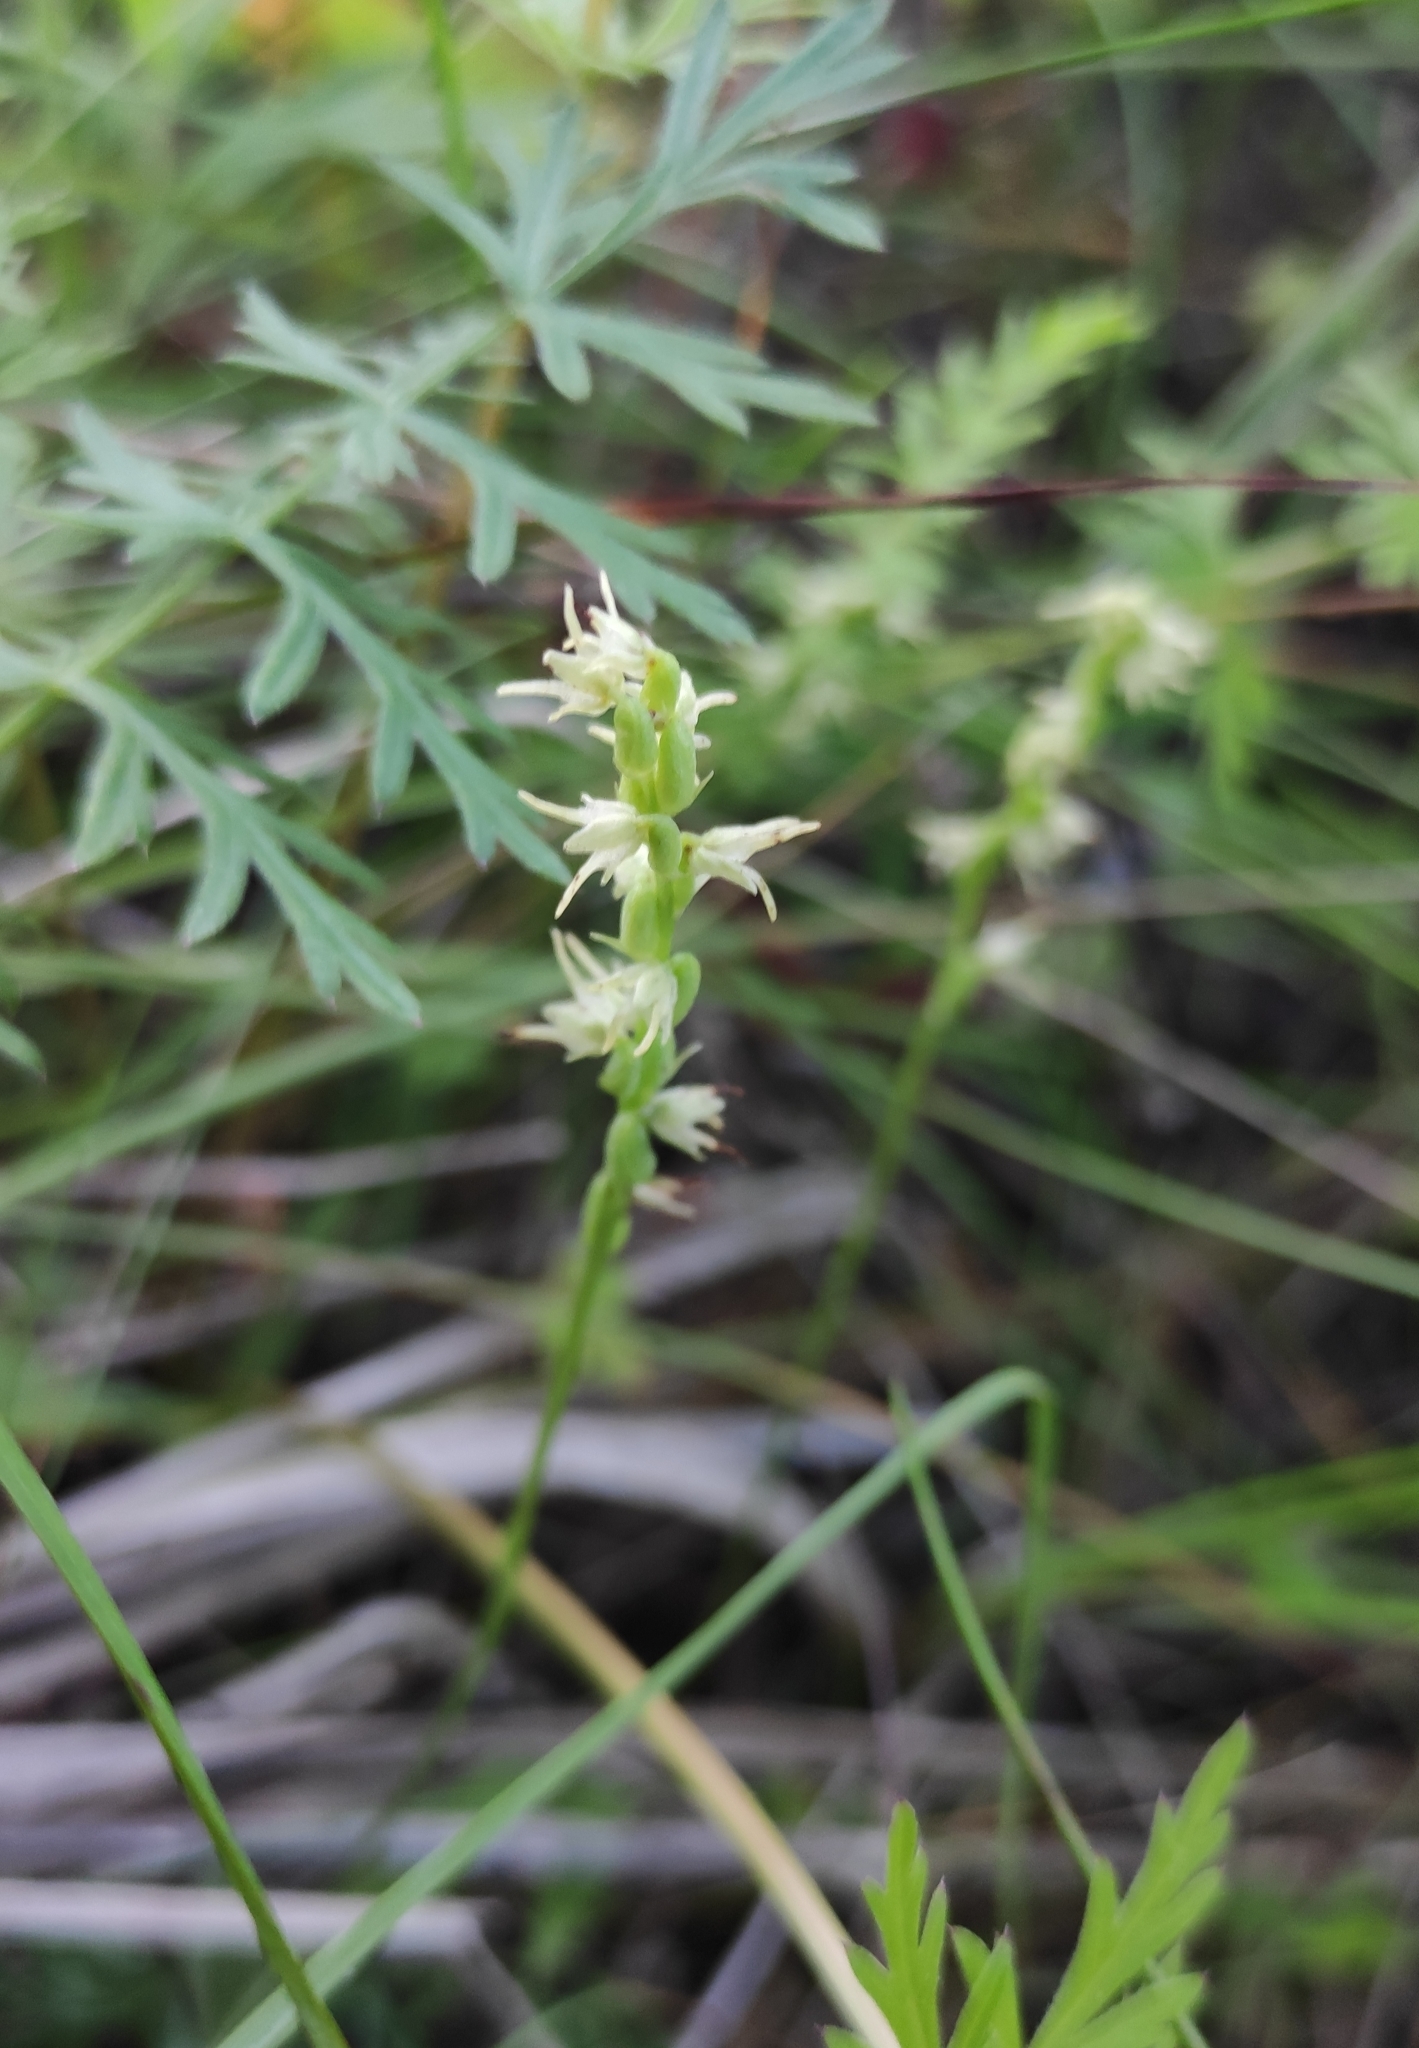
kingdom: Plantae
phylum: Tracheophyta
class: Liliopsida
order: Asparagales
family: Orchidaceae
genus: Herminium
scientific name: Herminium monorchis
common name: Musk orchid
